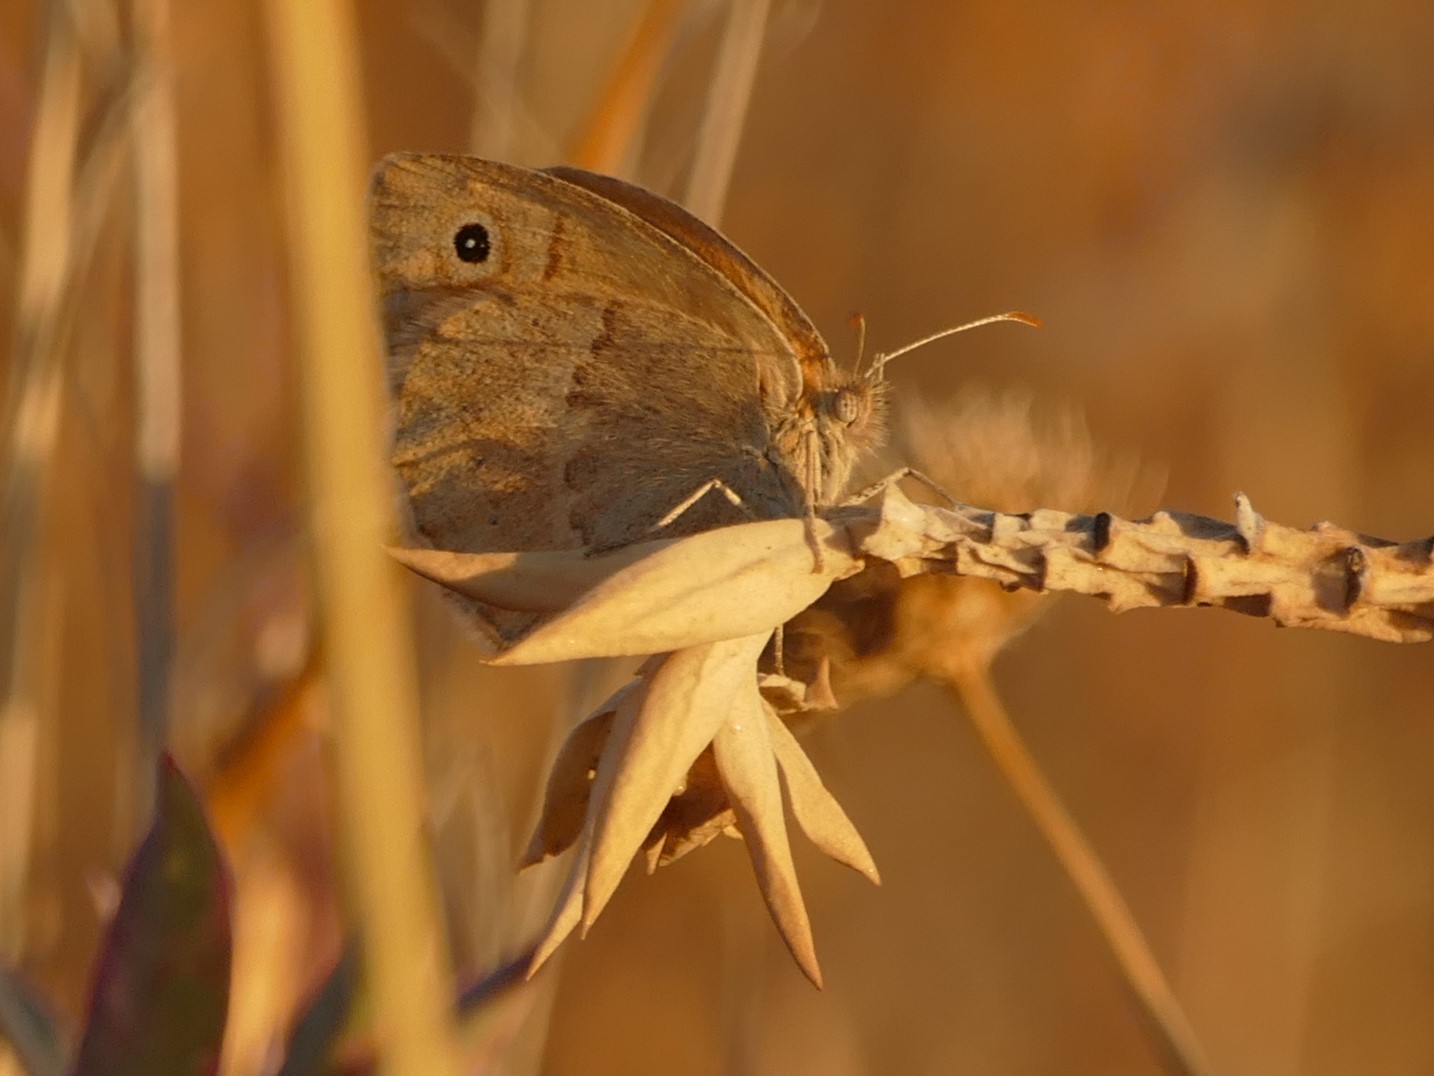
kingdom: Animalia
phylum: Arthropoda
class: Insecta
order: Lepidoptera
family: Nymphalidae
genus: Coenonympha
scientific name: Coenonympha pamphilus
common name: Small heath
